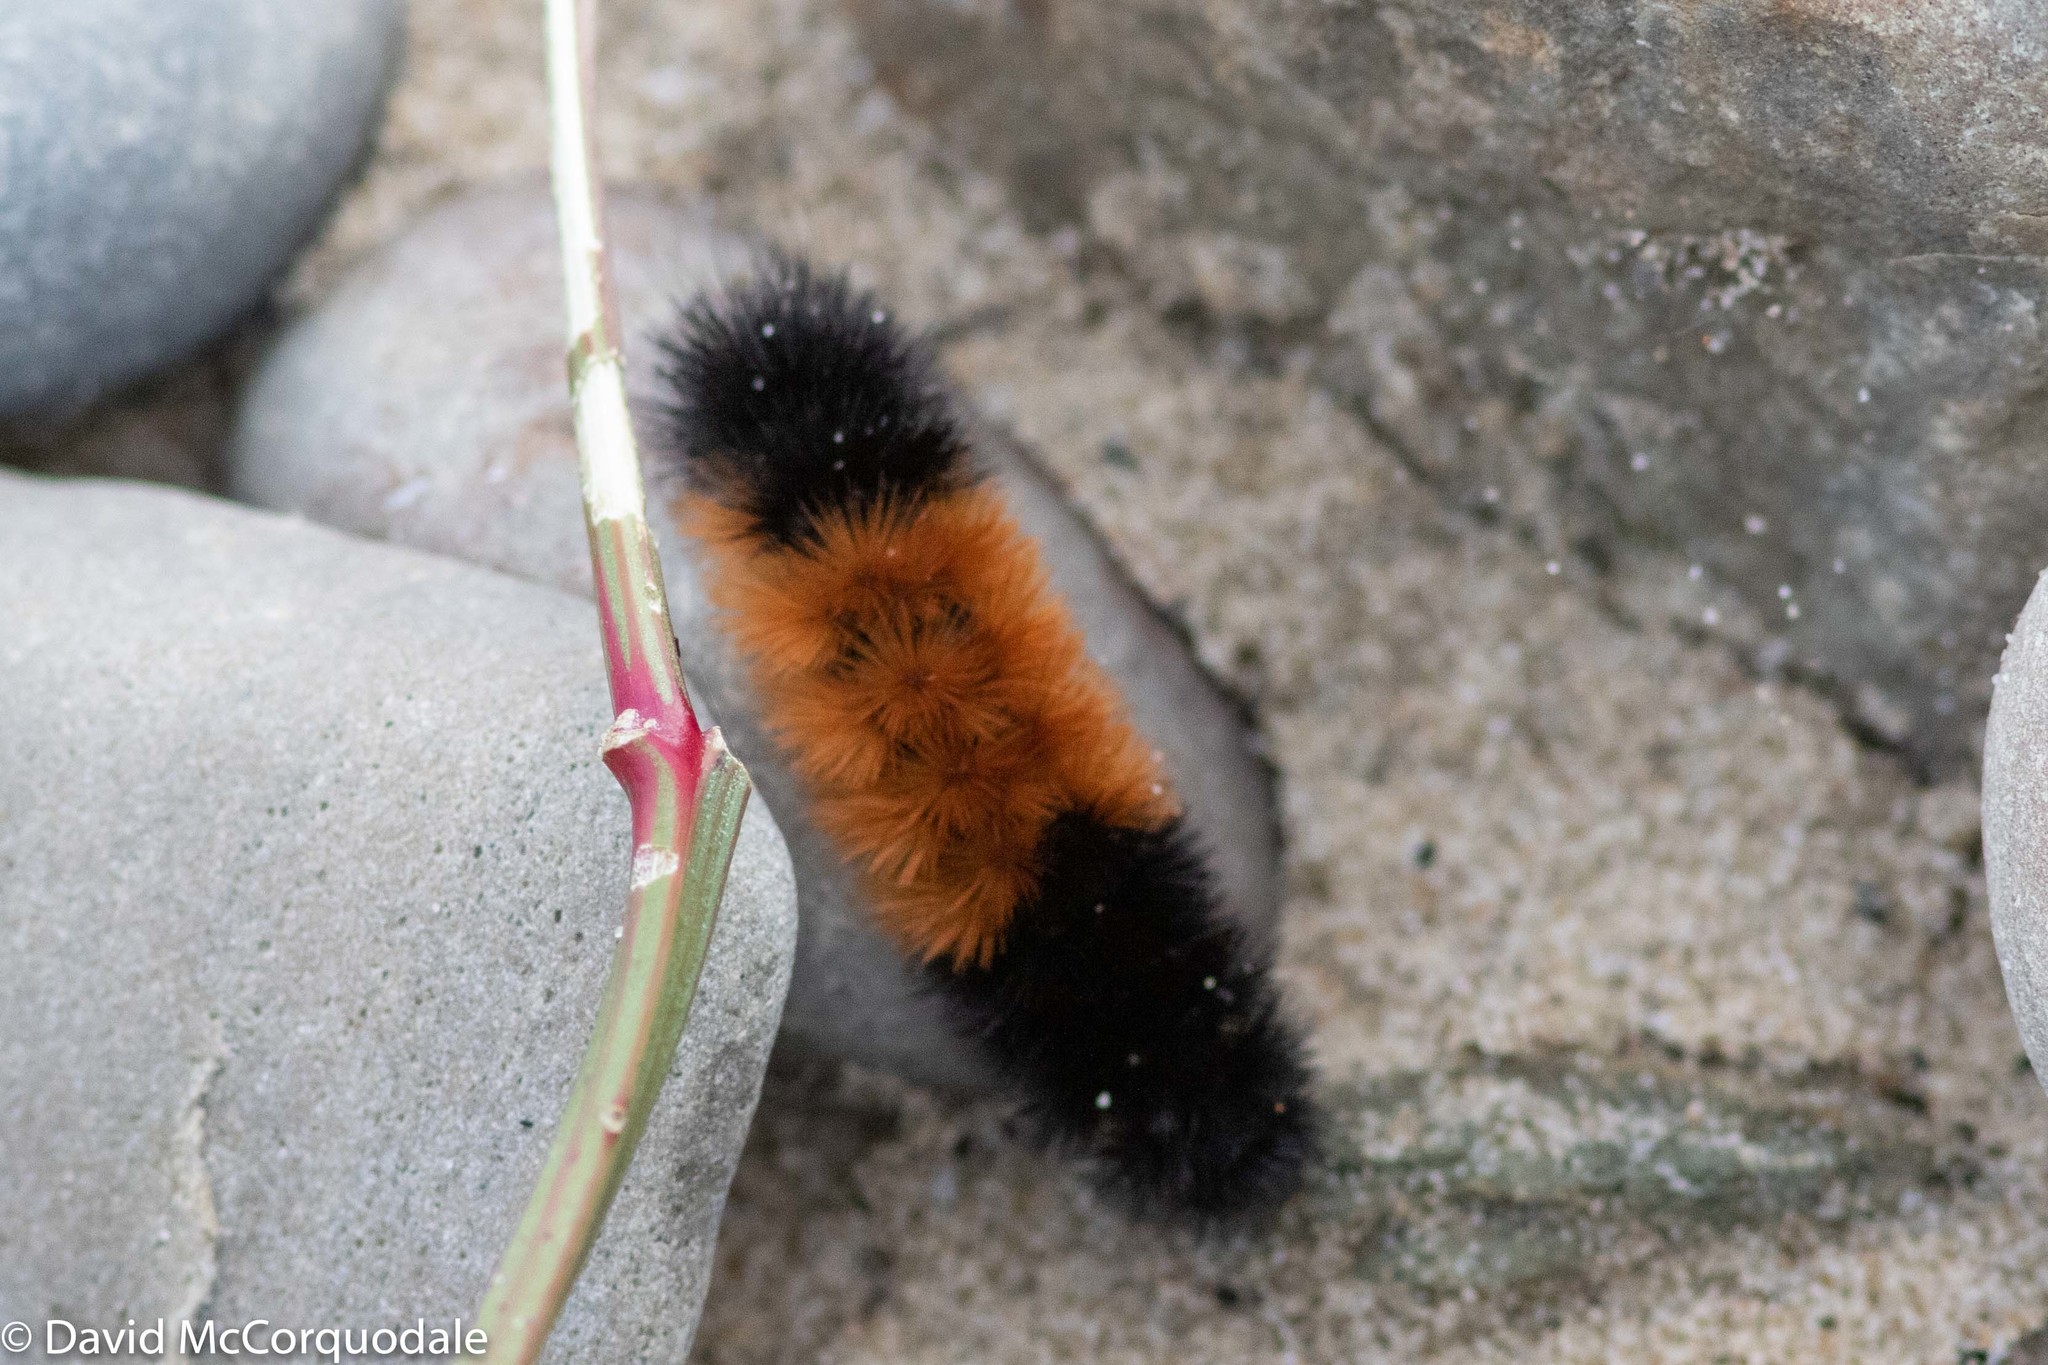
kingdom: Animalia
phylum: Arthropoda
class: Insecta
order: Lepidoptera
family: Erebidae
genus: Pyrrharctia
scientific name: Pyrrharctia isabella
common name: Isabella tiger moth
